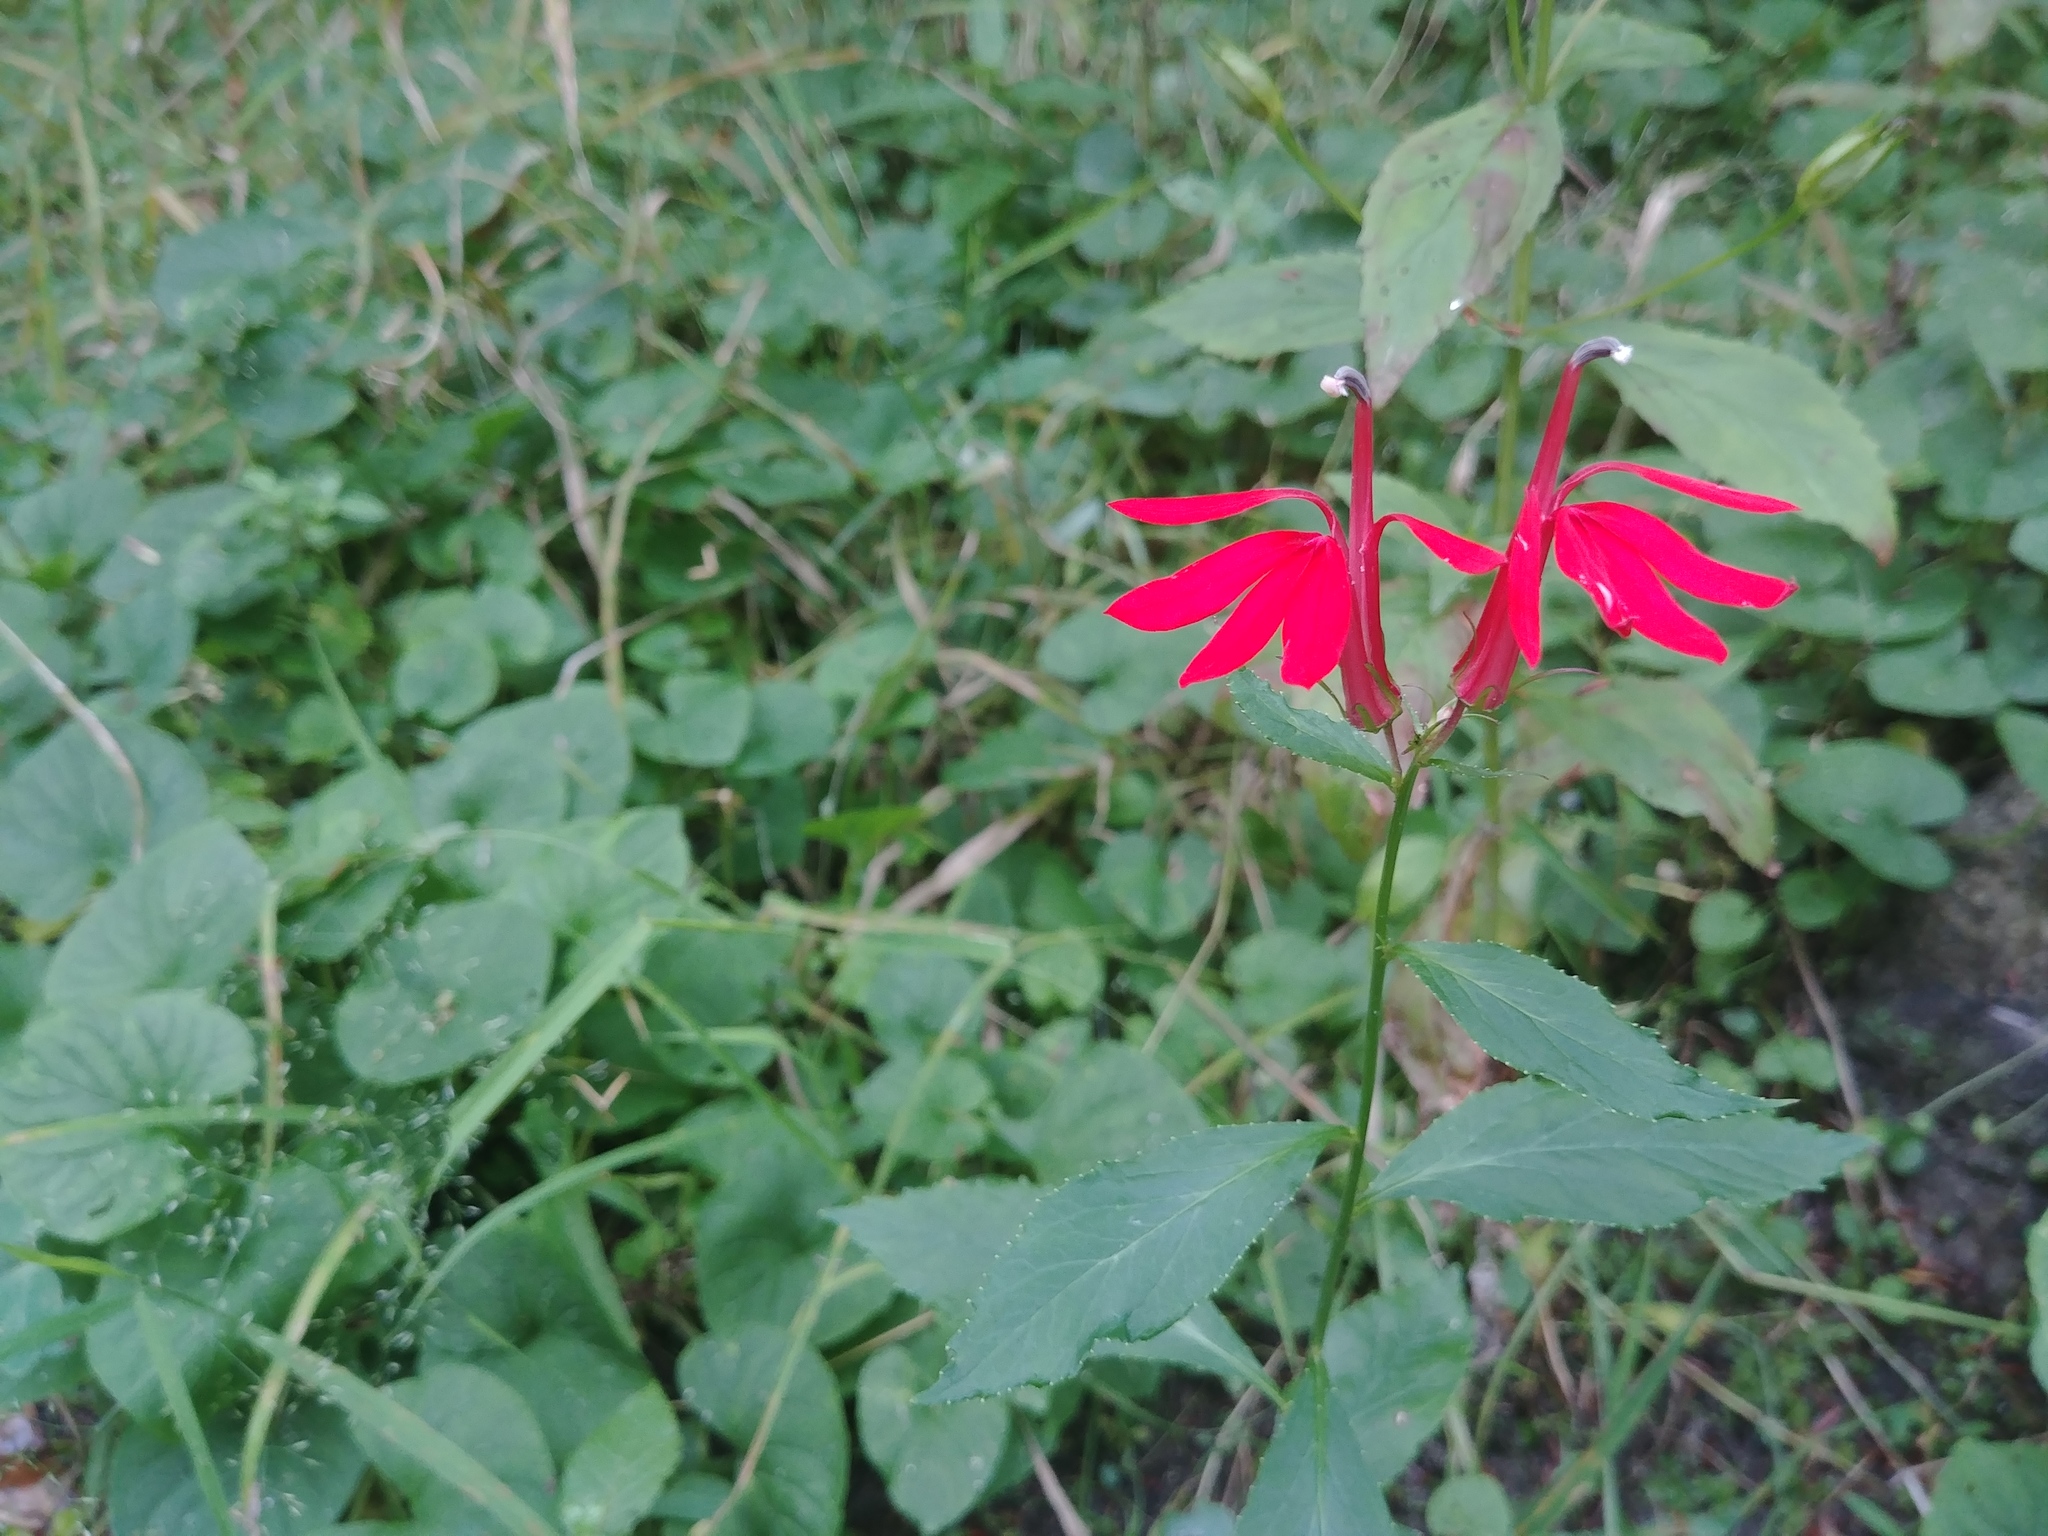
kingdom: Plantae
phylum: Tracheophyta
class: Magnoliopsida
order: Asterales
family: Campanulaceae
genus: Lobelia
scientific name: Lobelia cardinalis
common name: Cardinal flower
